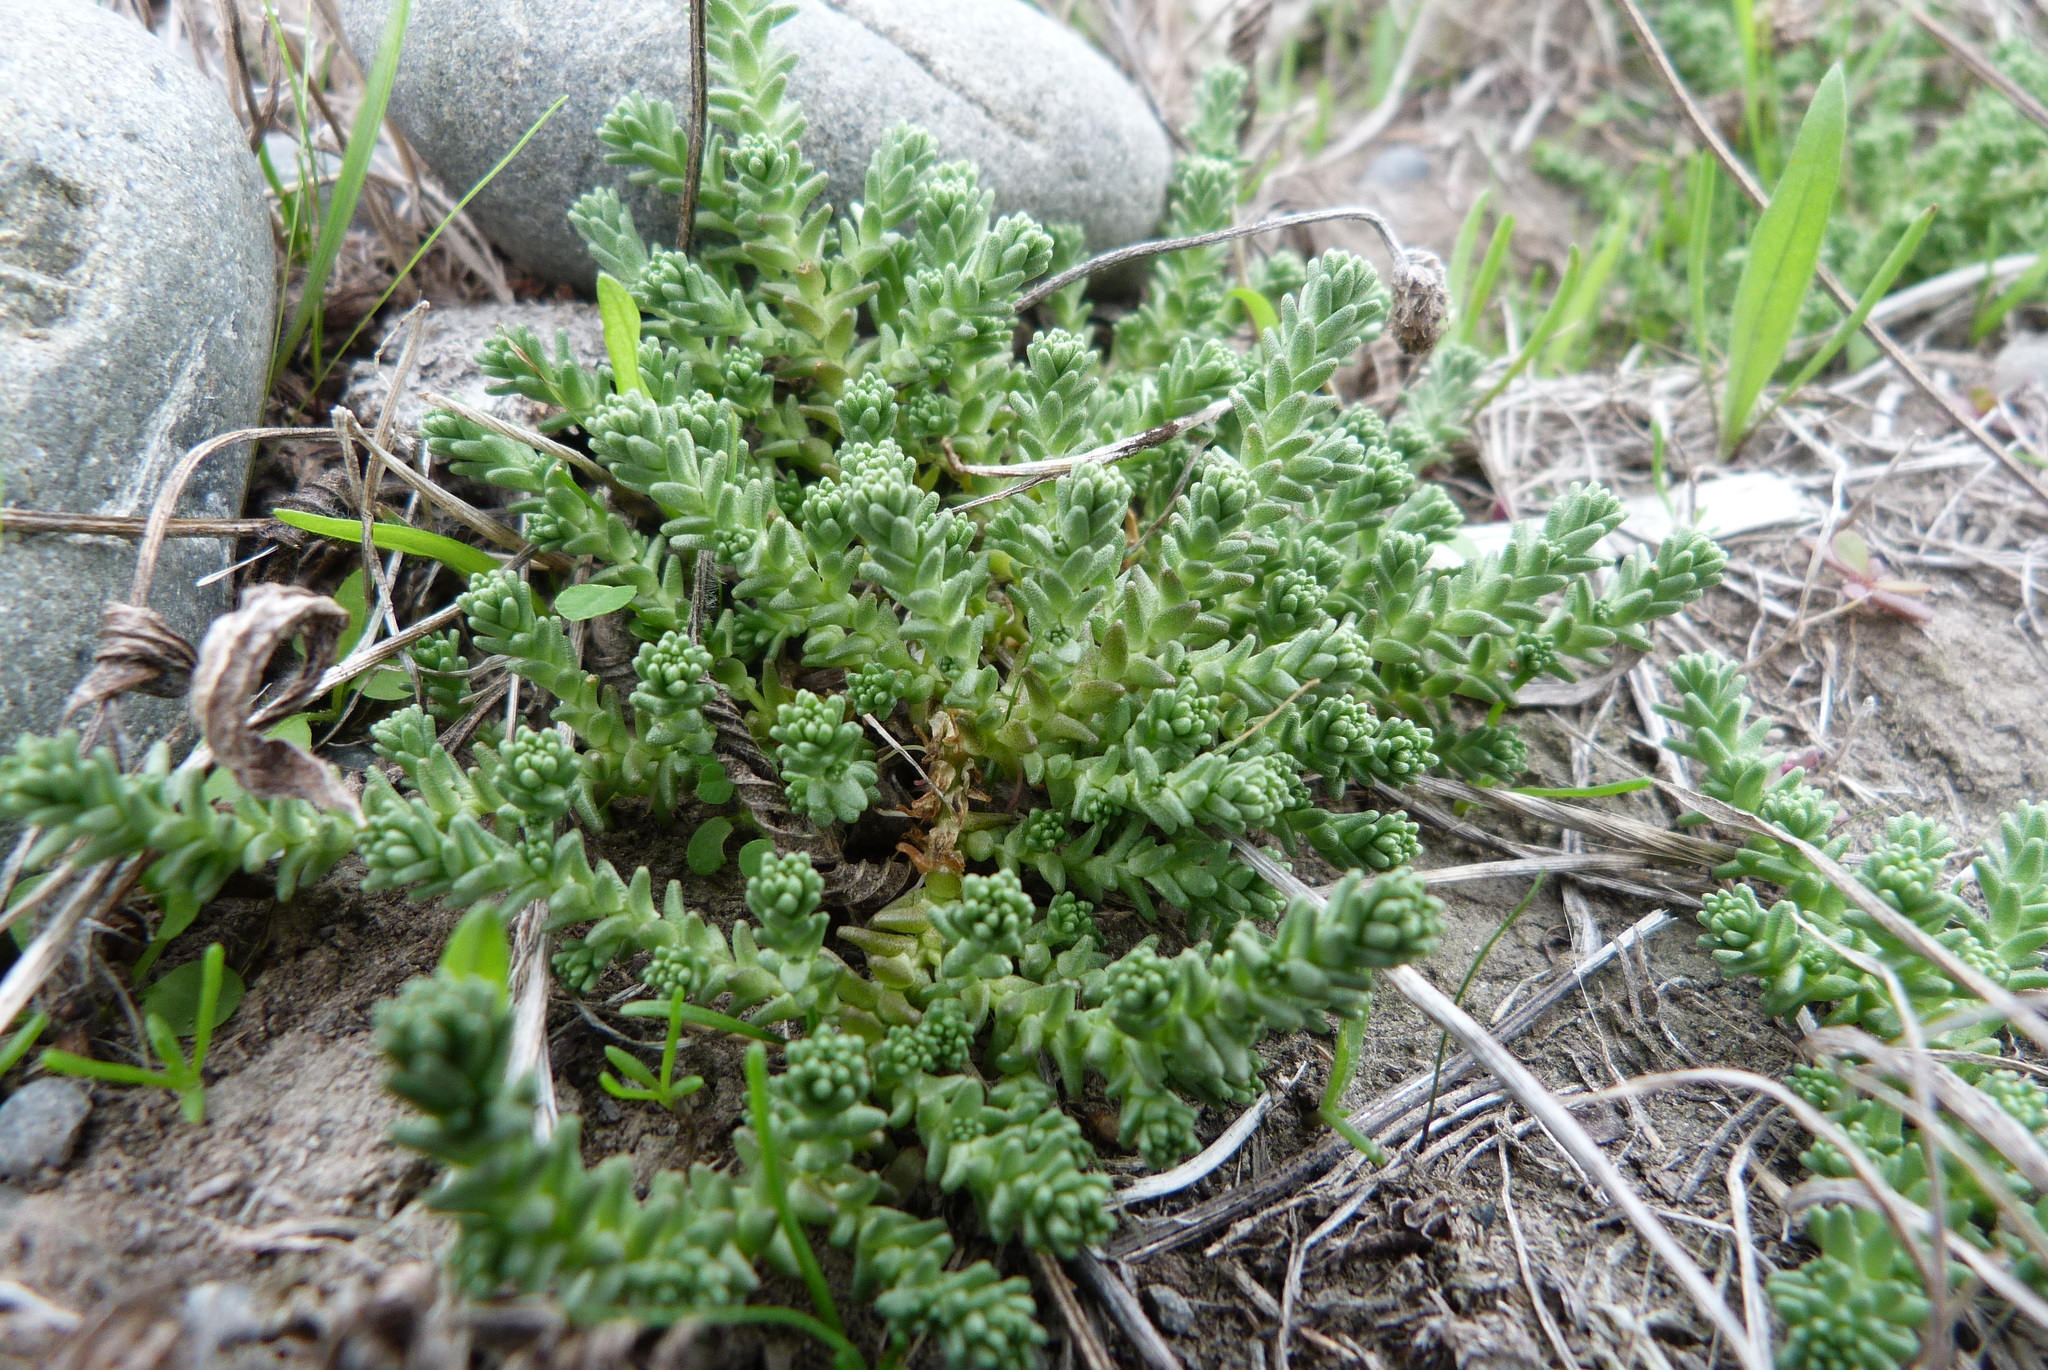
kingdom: Plantae
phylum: Tracheophyta
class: Magnoliopsida
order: Saxifragales
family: Crassulaceae
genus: Sedum
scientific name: Sedum acre
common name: Biting stonecrop
